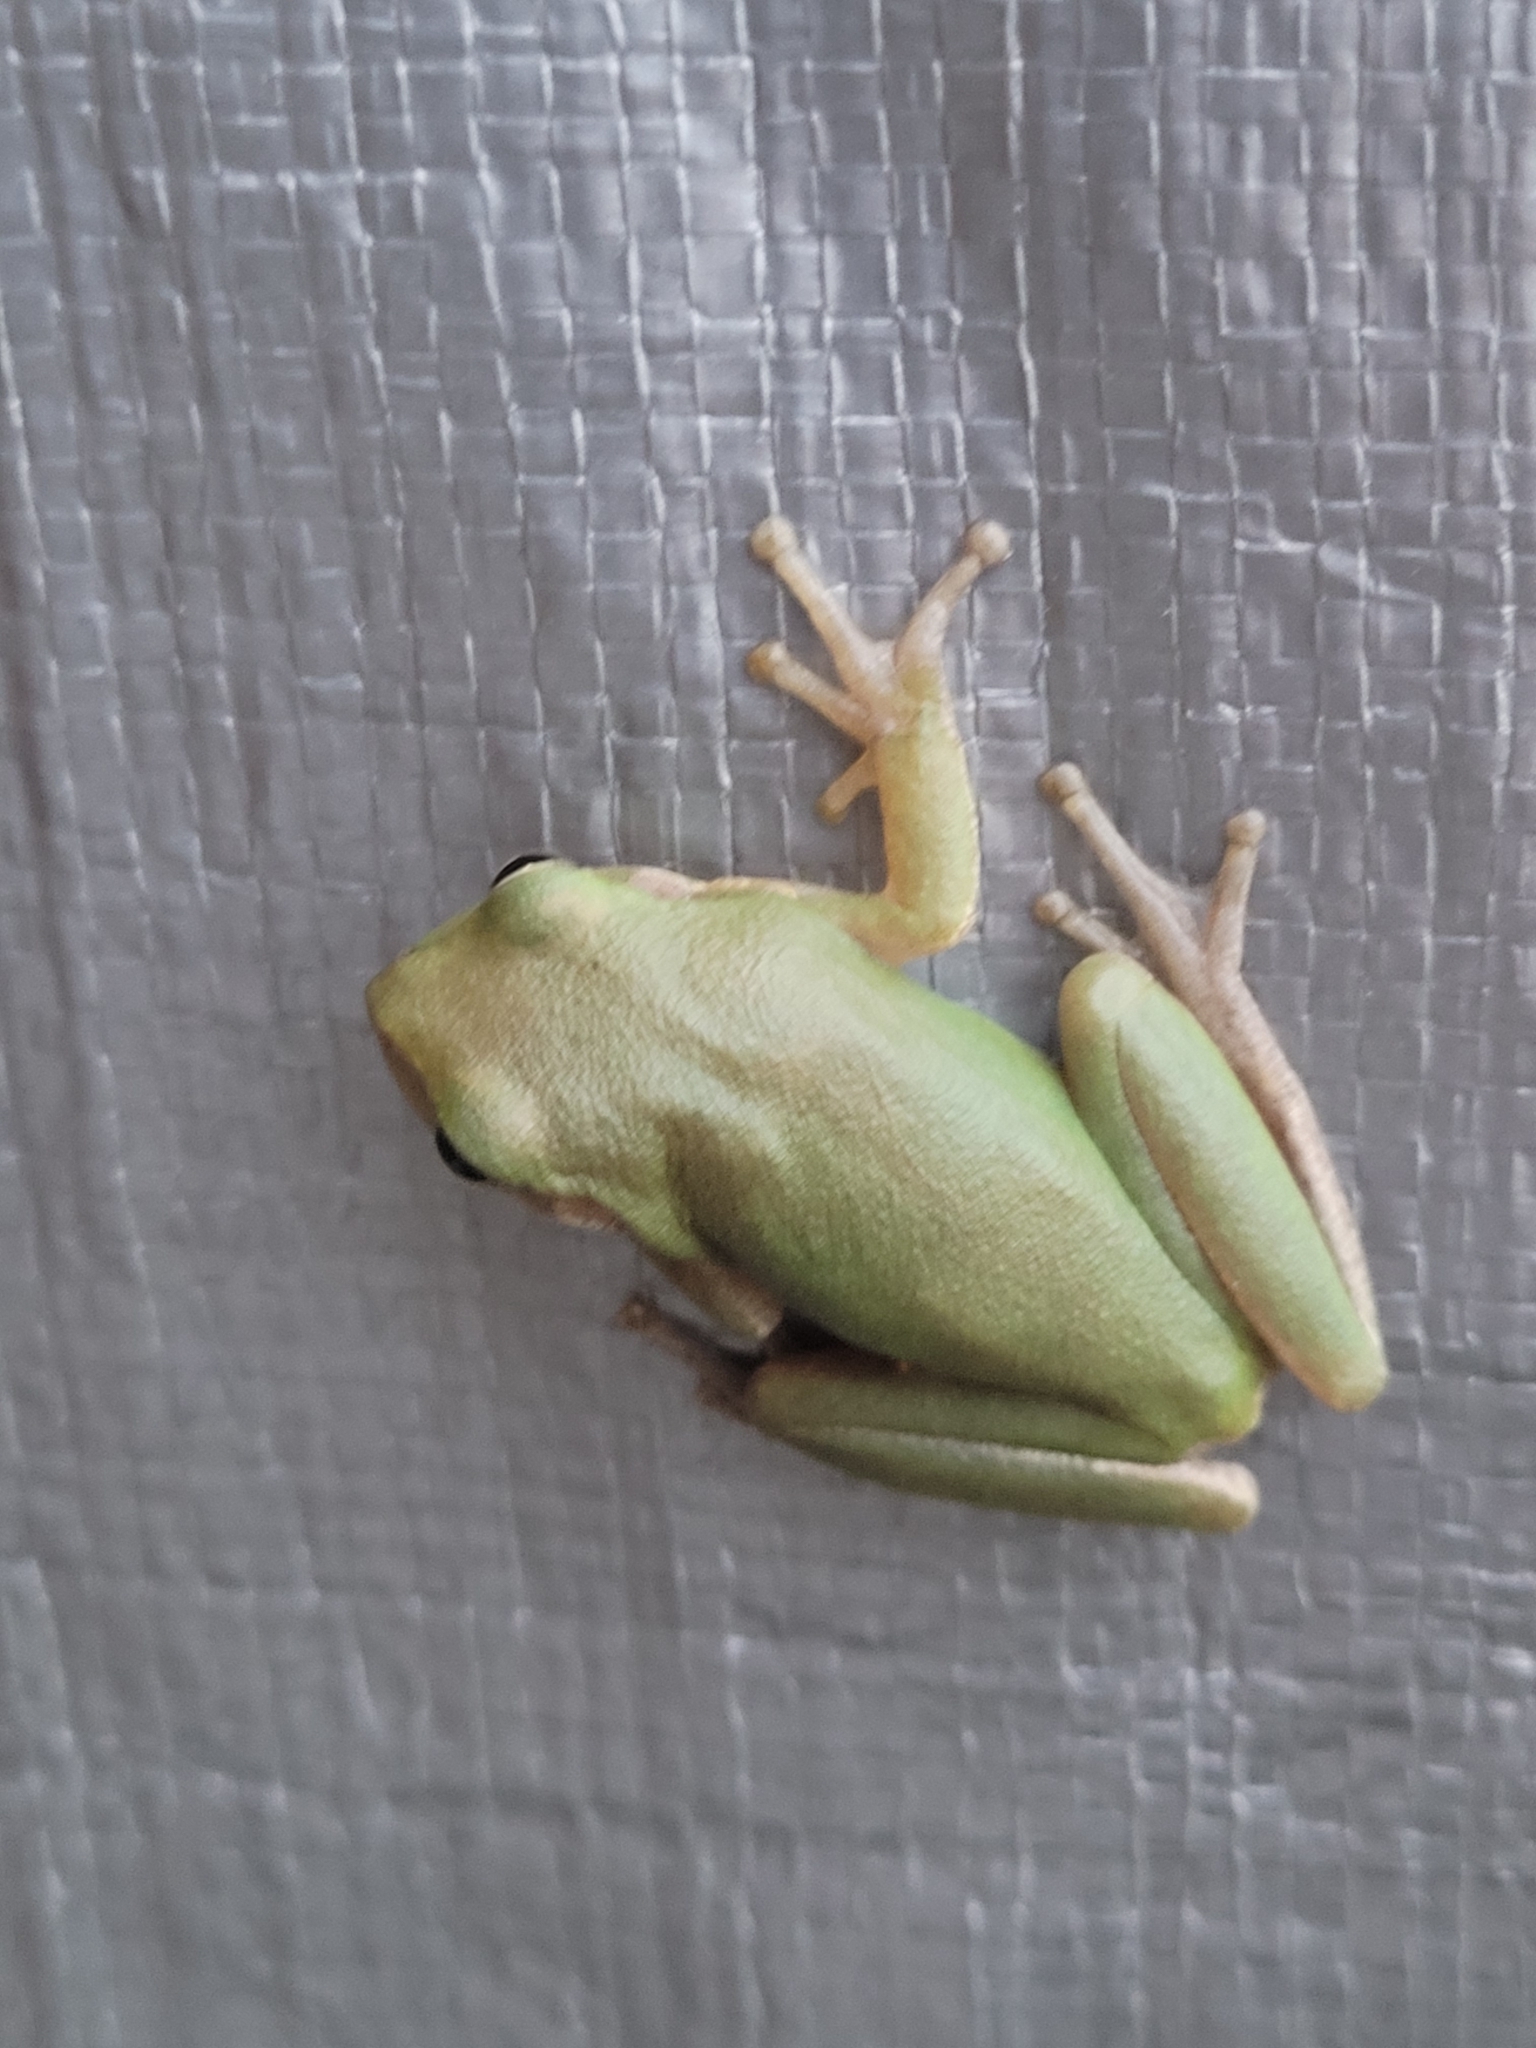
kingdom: Animalia
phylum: Chordata
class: Amphibia
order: Anura
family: Hylidae
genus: Dryophytes
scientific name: Dryophytes squirellus
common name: Squirrel treefrog
